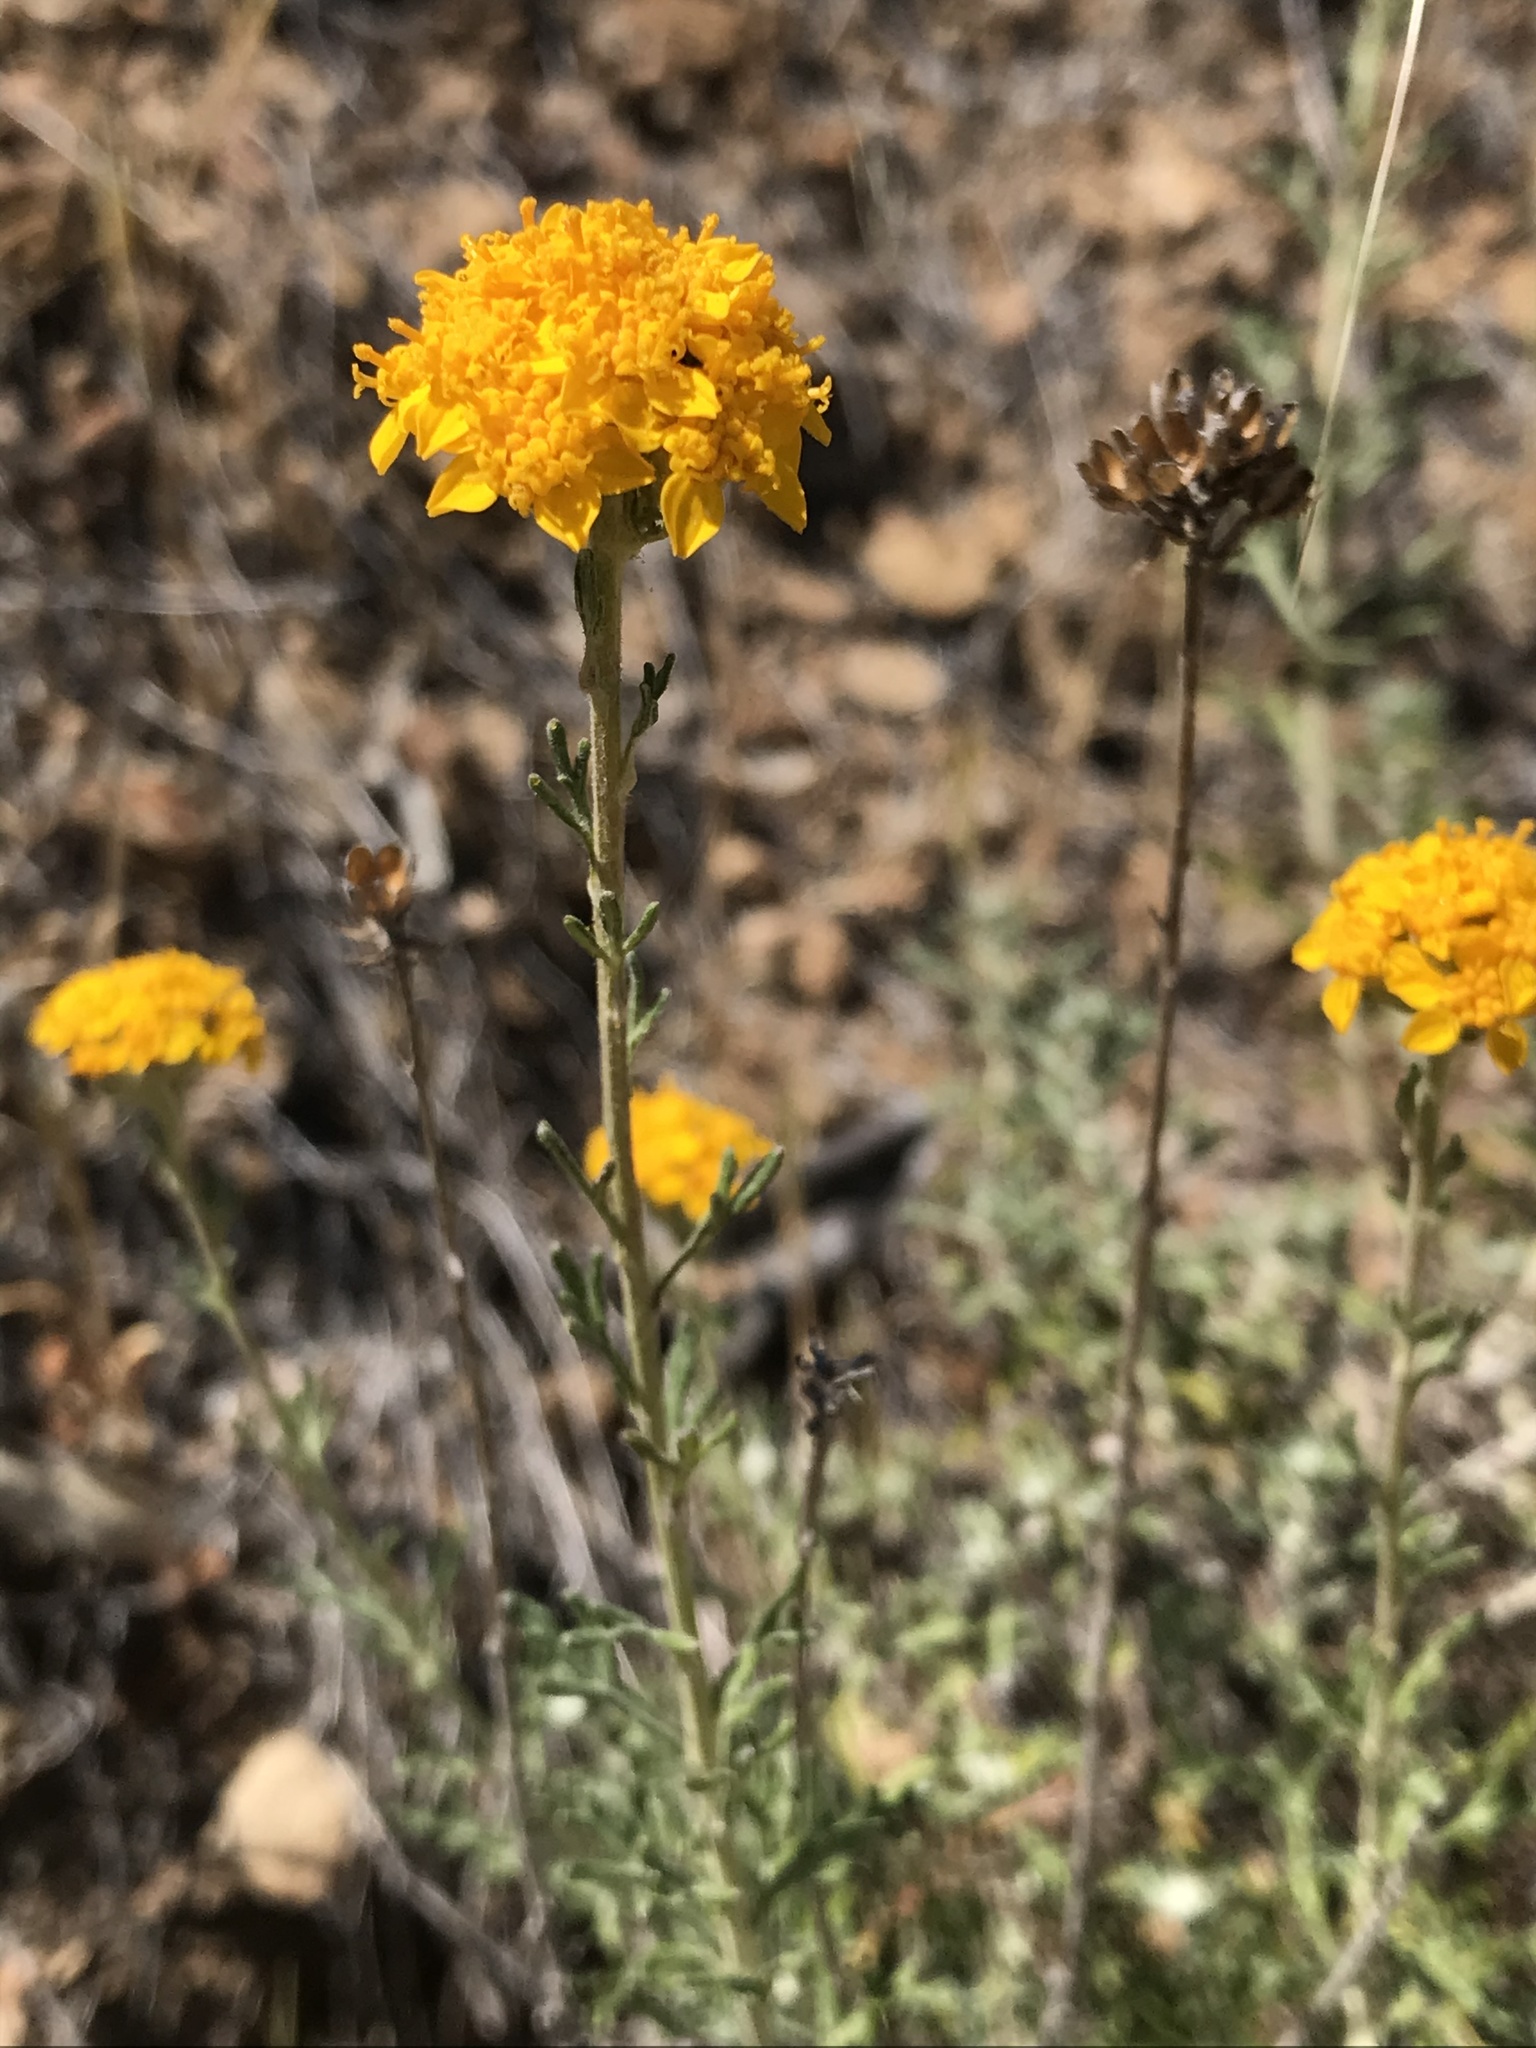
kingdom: Plantae
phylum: Tracheophyta
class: Magnoliopsida
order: Asterales
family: Asteraceae
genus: Eriophyllum
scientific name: Eriophyllum confertiflorum
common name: Golden-yarrow
